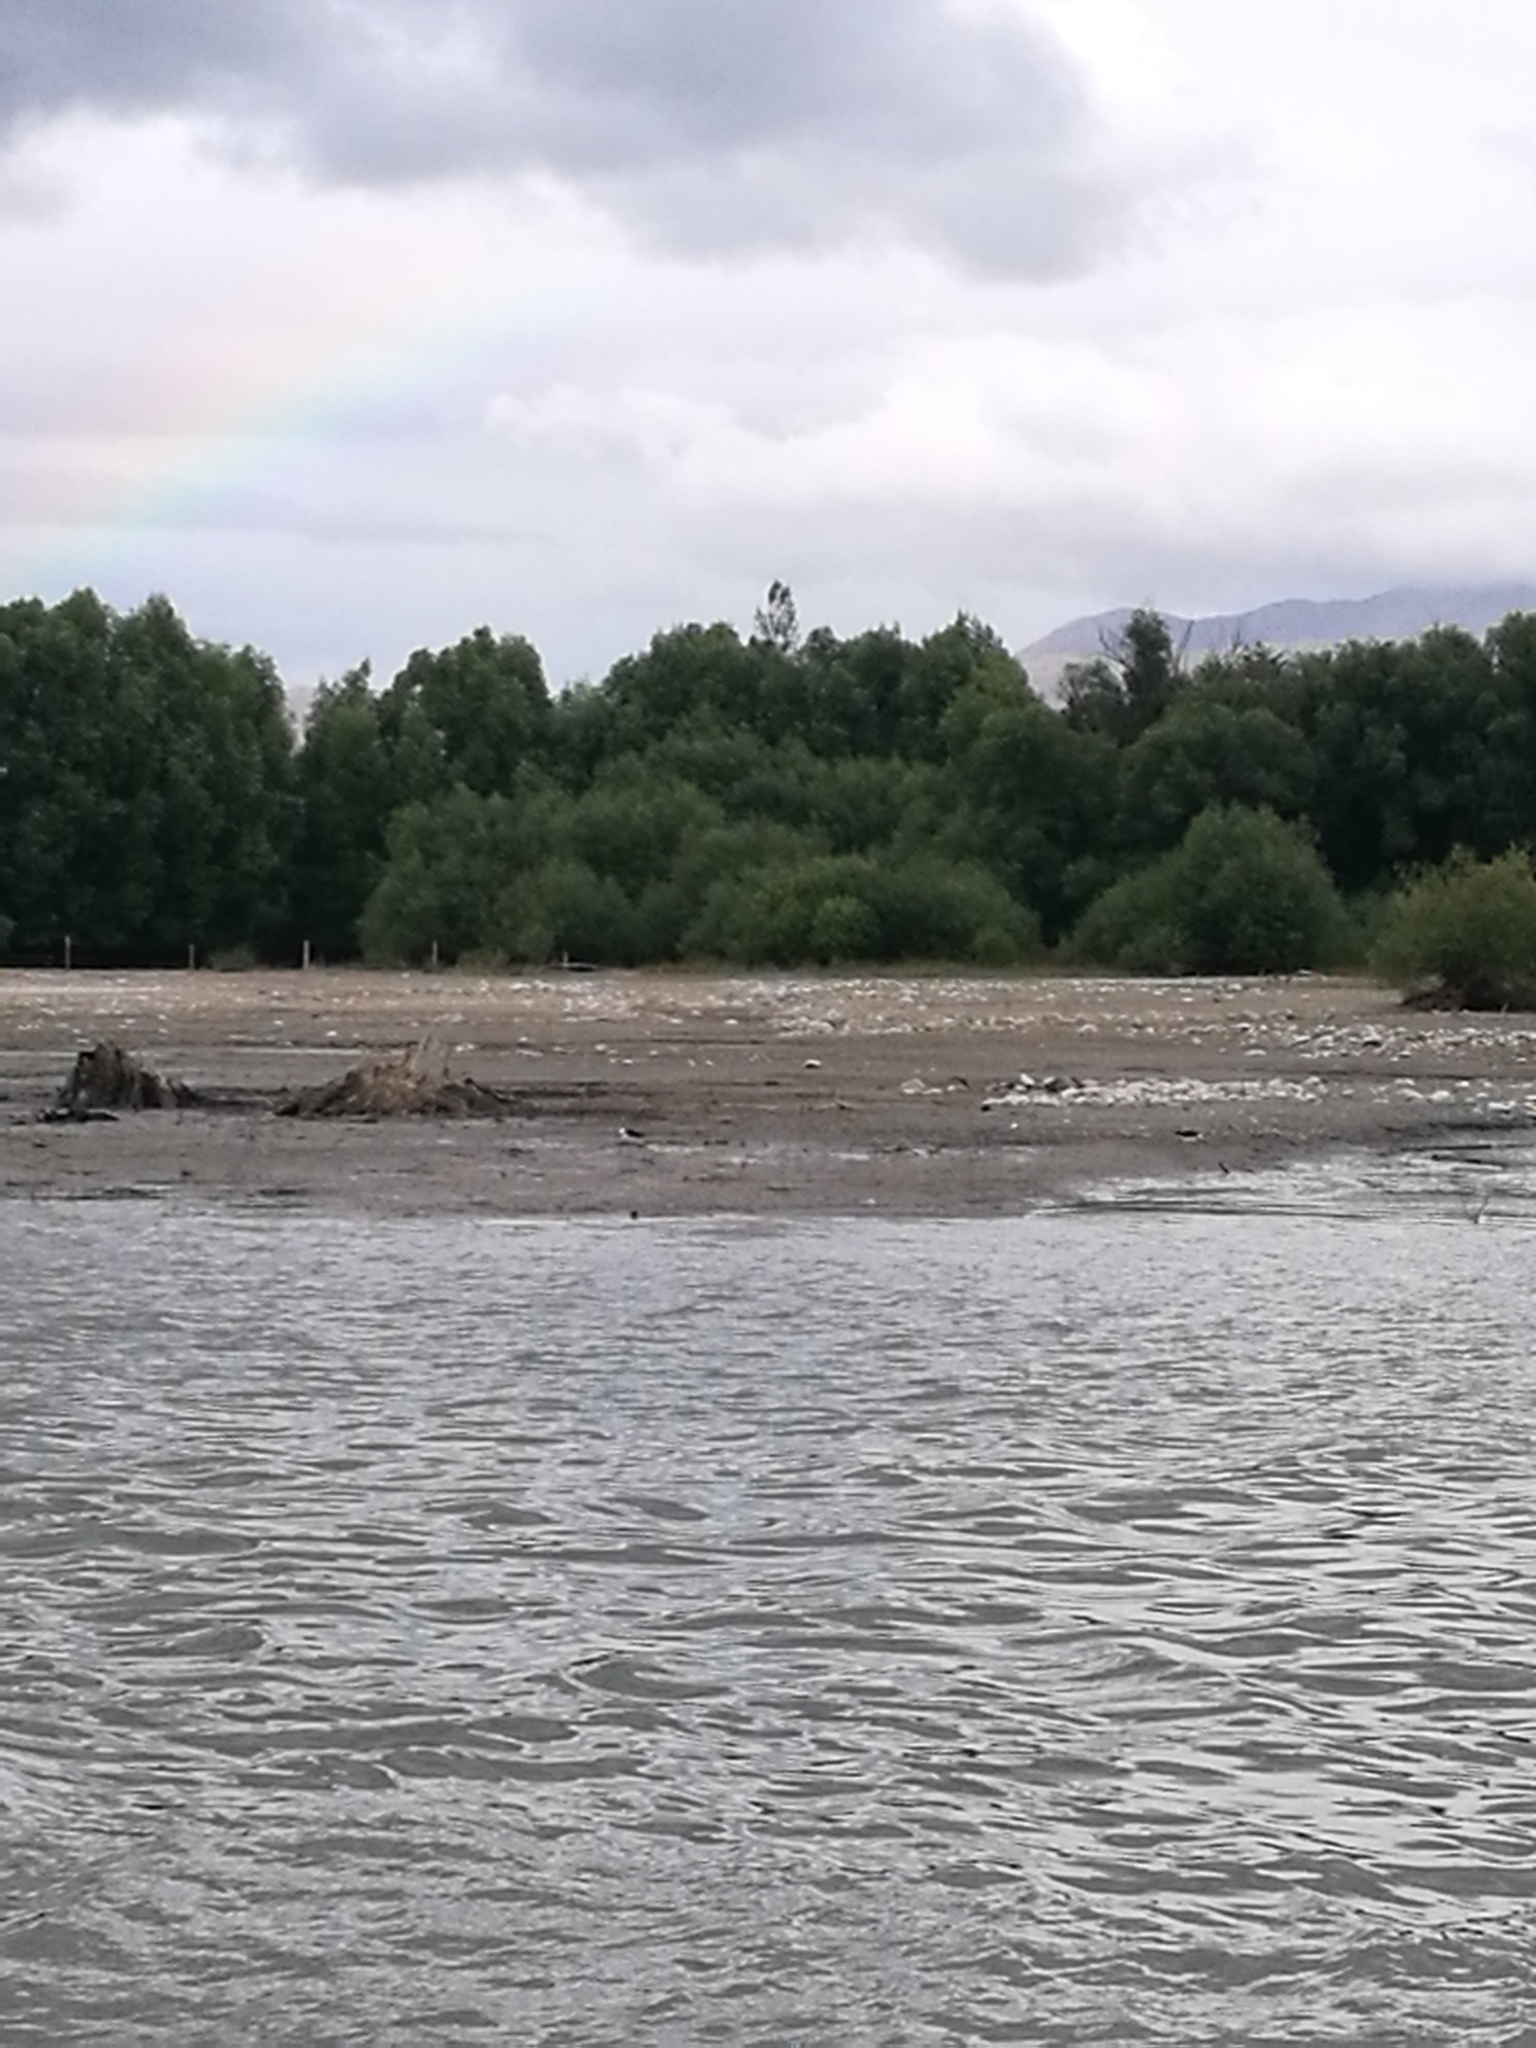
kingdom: Animalia
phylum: Chordata
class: Aves
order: Charadriiformes
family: Recurvirostridae
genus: Himantopus
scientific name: Himantopus leucocephalus
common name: White-headed stilt
